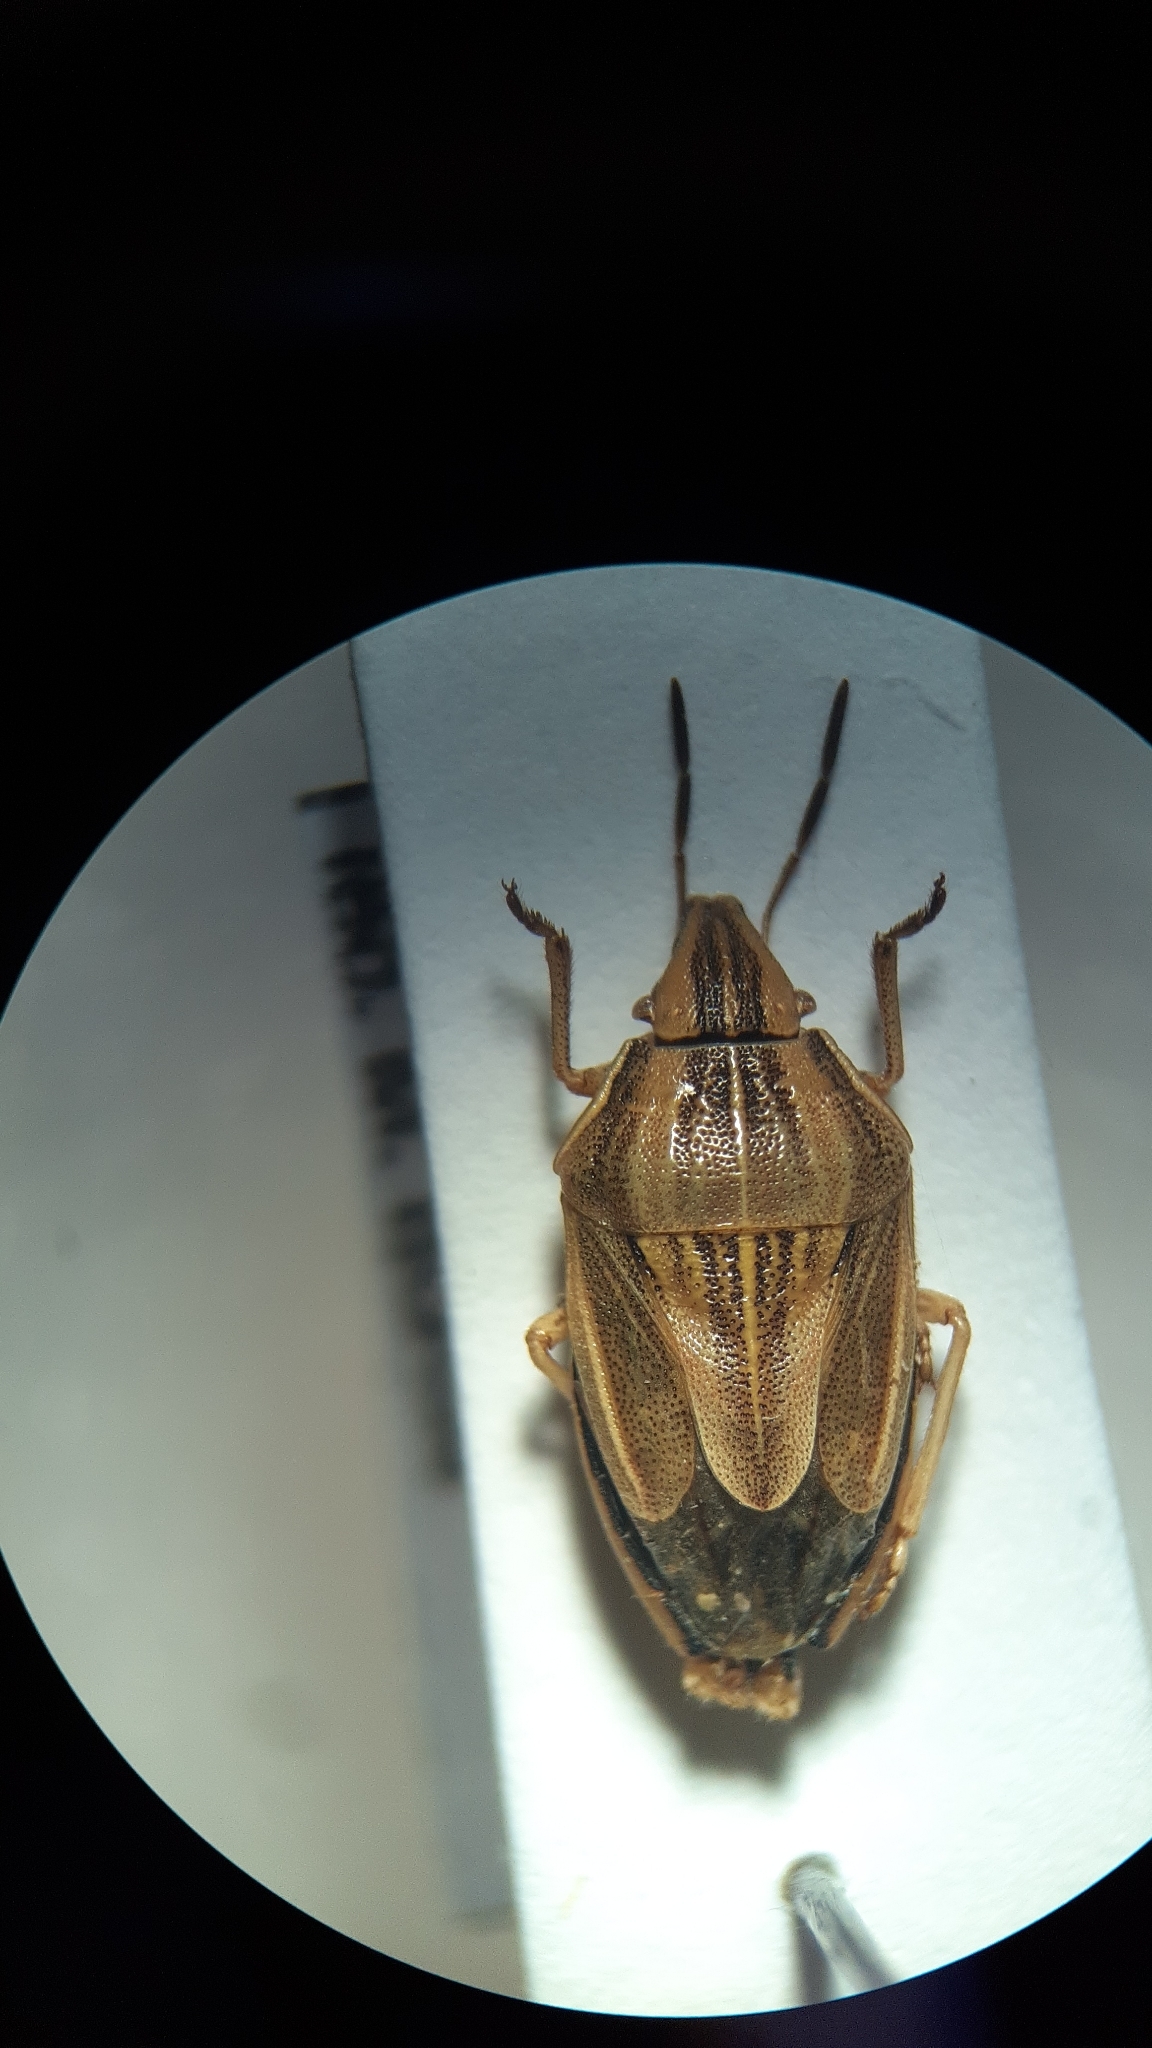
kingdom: Animalia
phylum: Arthropoda
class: Insecta
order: Hemiptera
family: Pentatomidae
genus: Aelia
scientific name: Aelia acuminata
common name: Bishop's mitre
